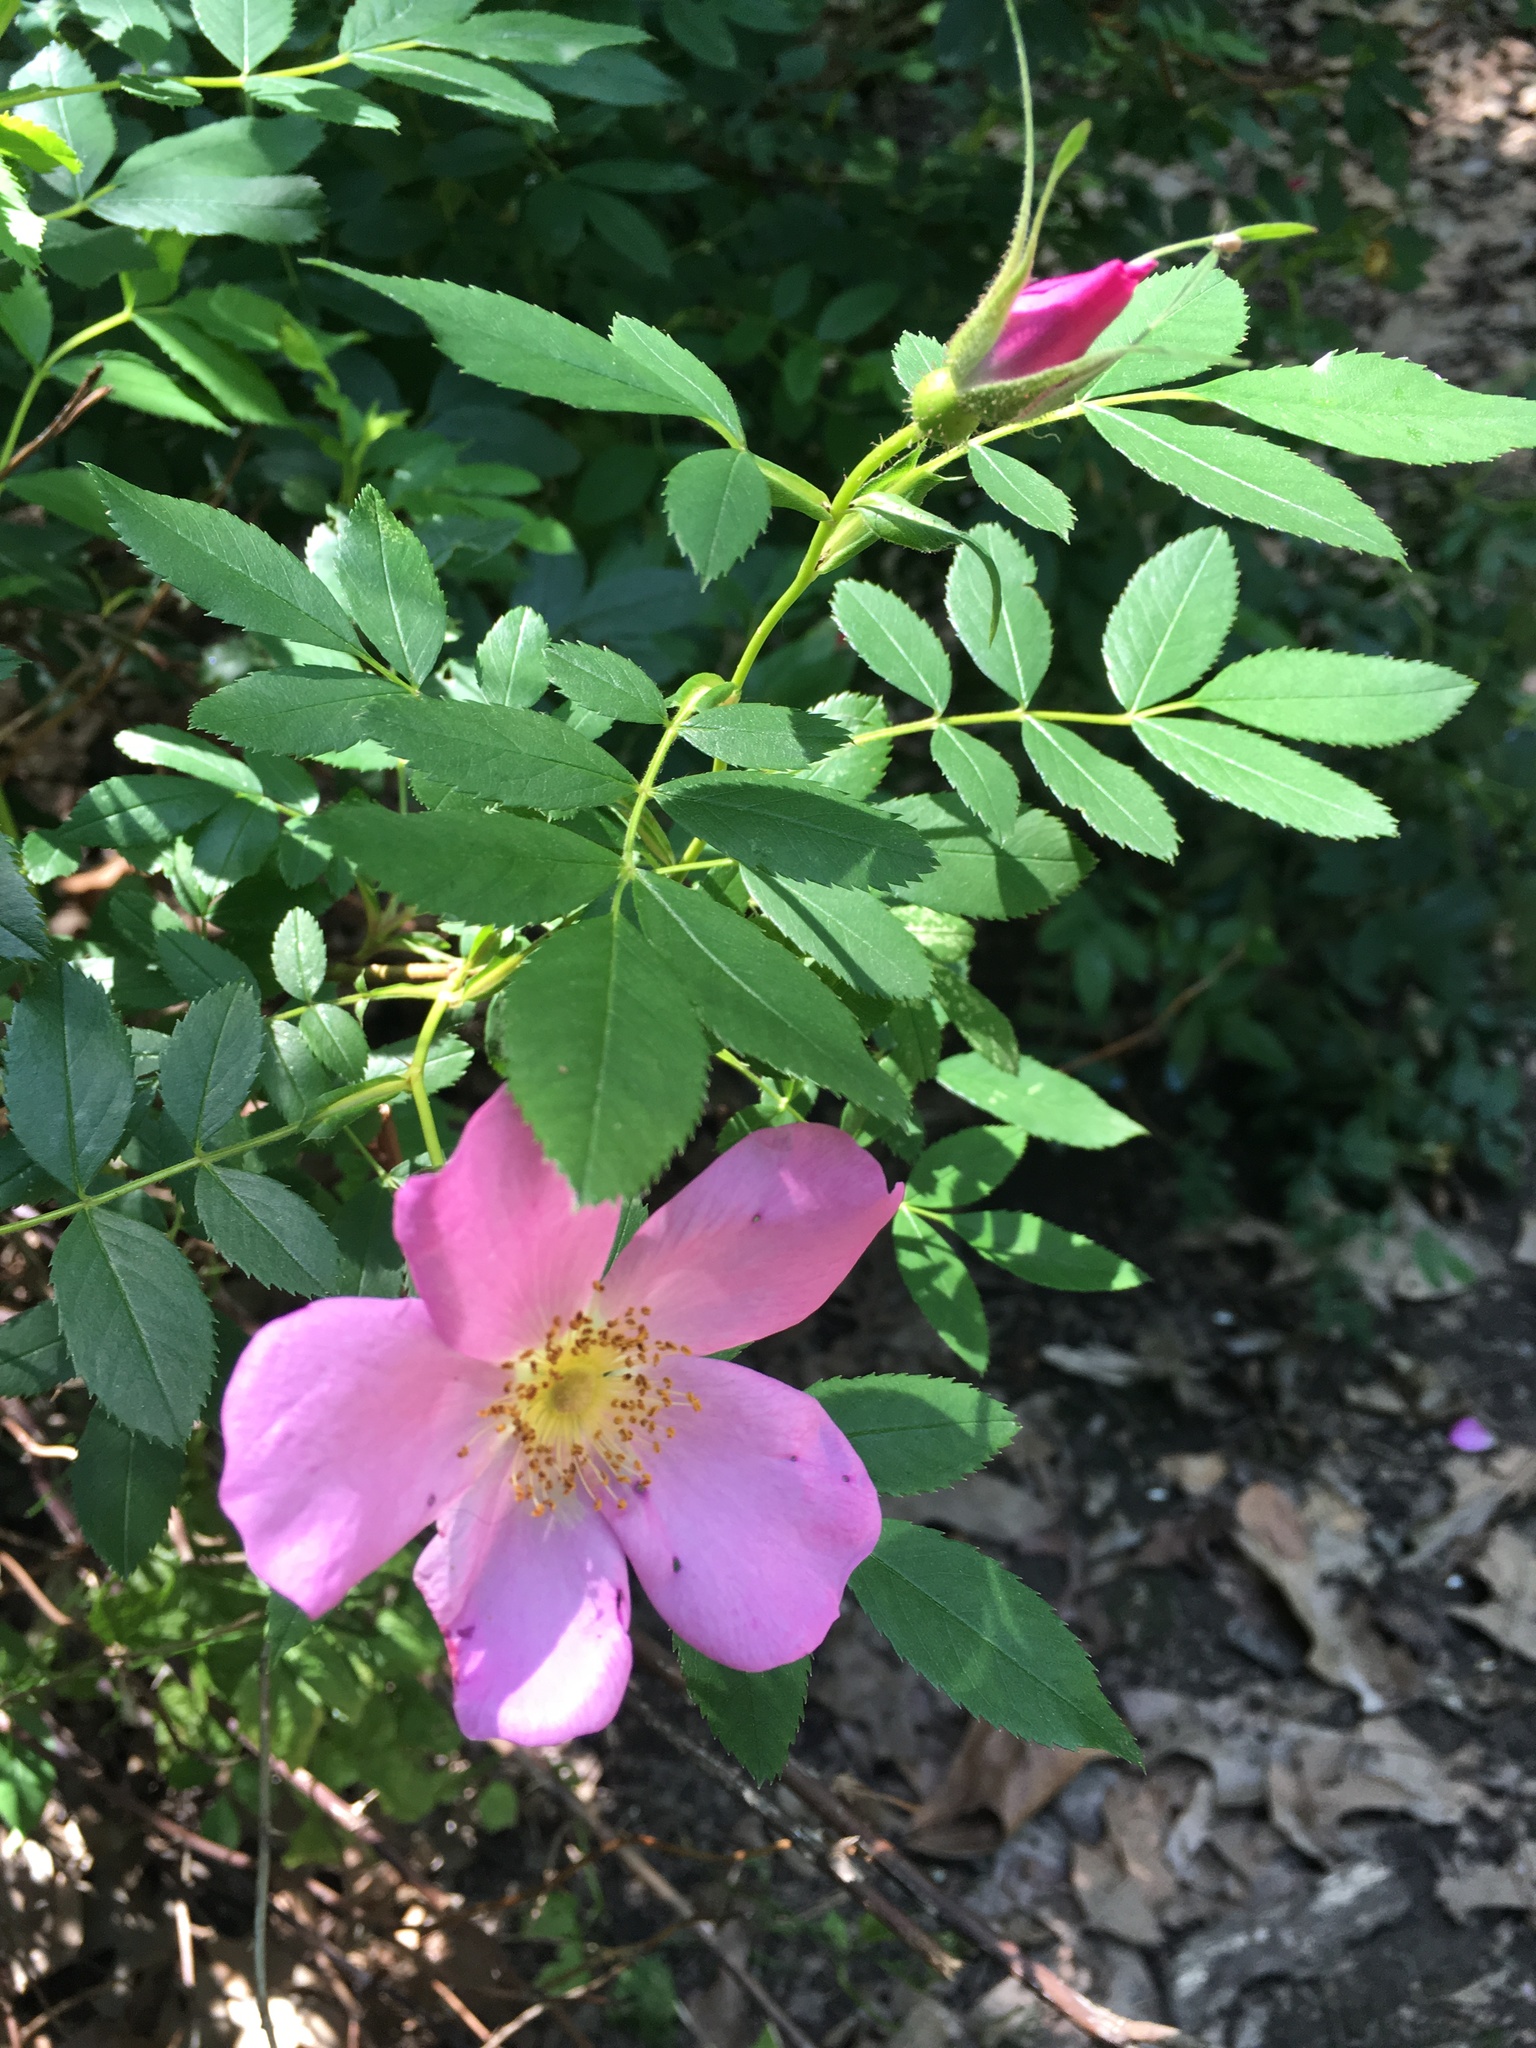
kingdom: Plantae
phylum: Tracheophyta
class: Magnoliopsida
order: Rosales
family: Rosaceae
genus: Rosa
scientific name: Rosa carolina
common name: Pasture rose
